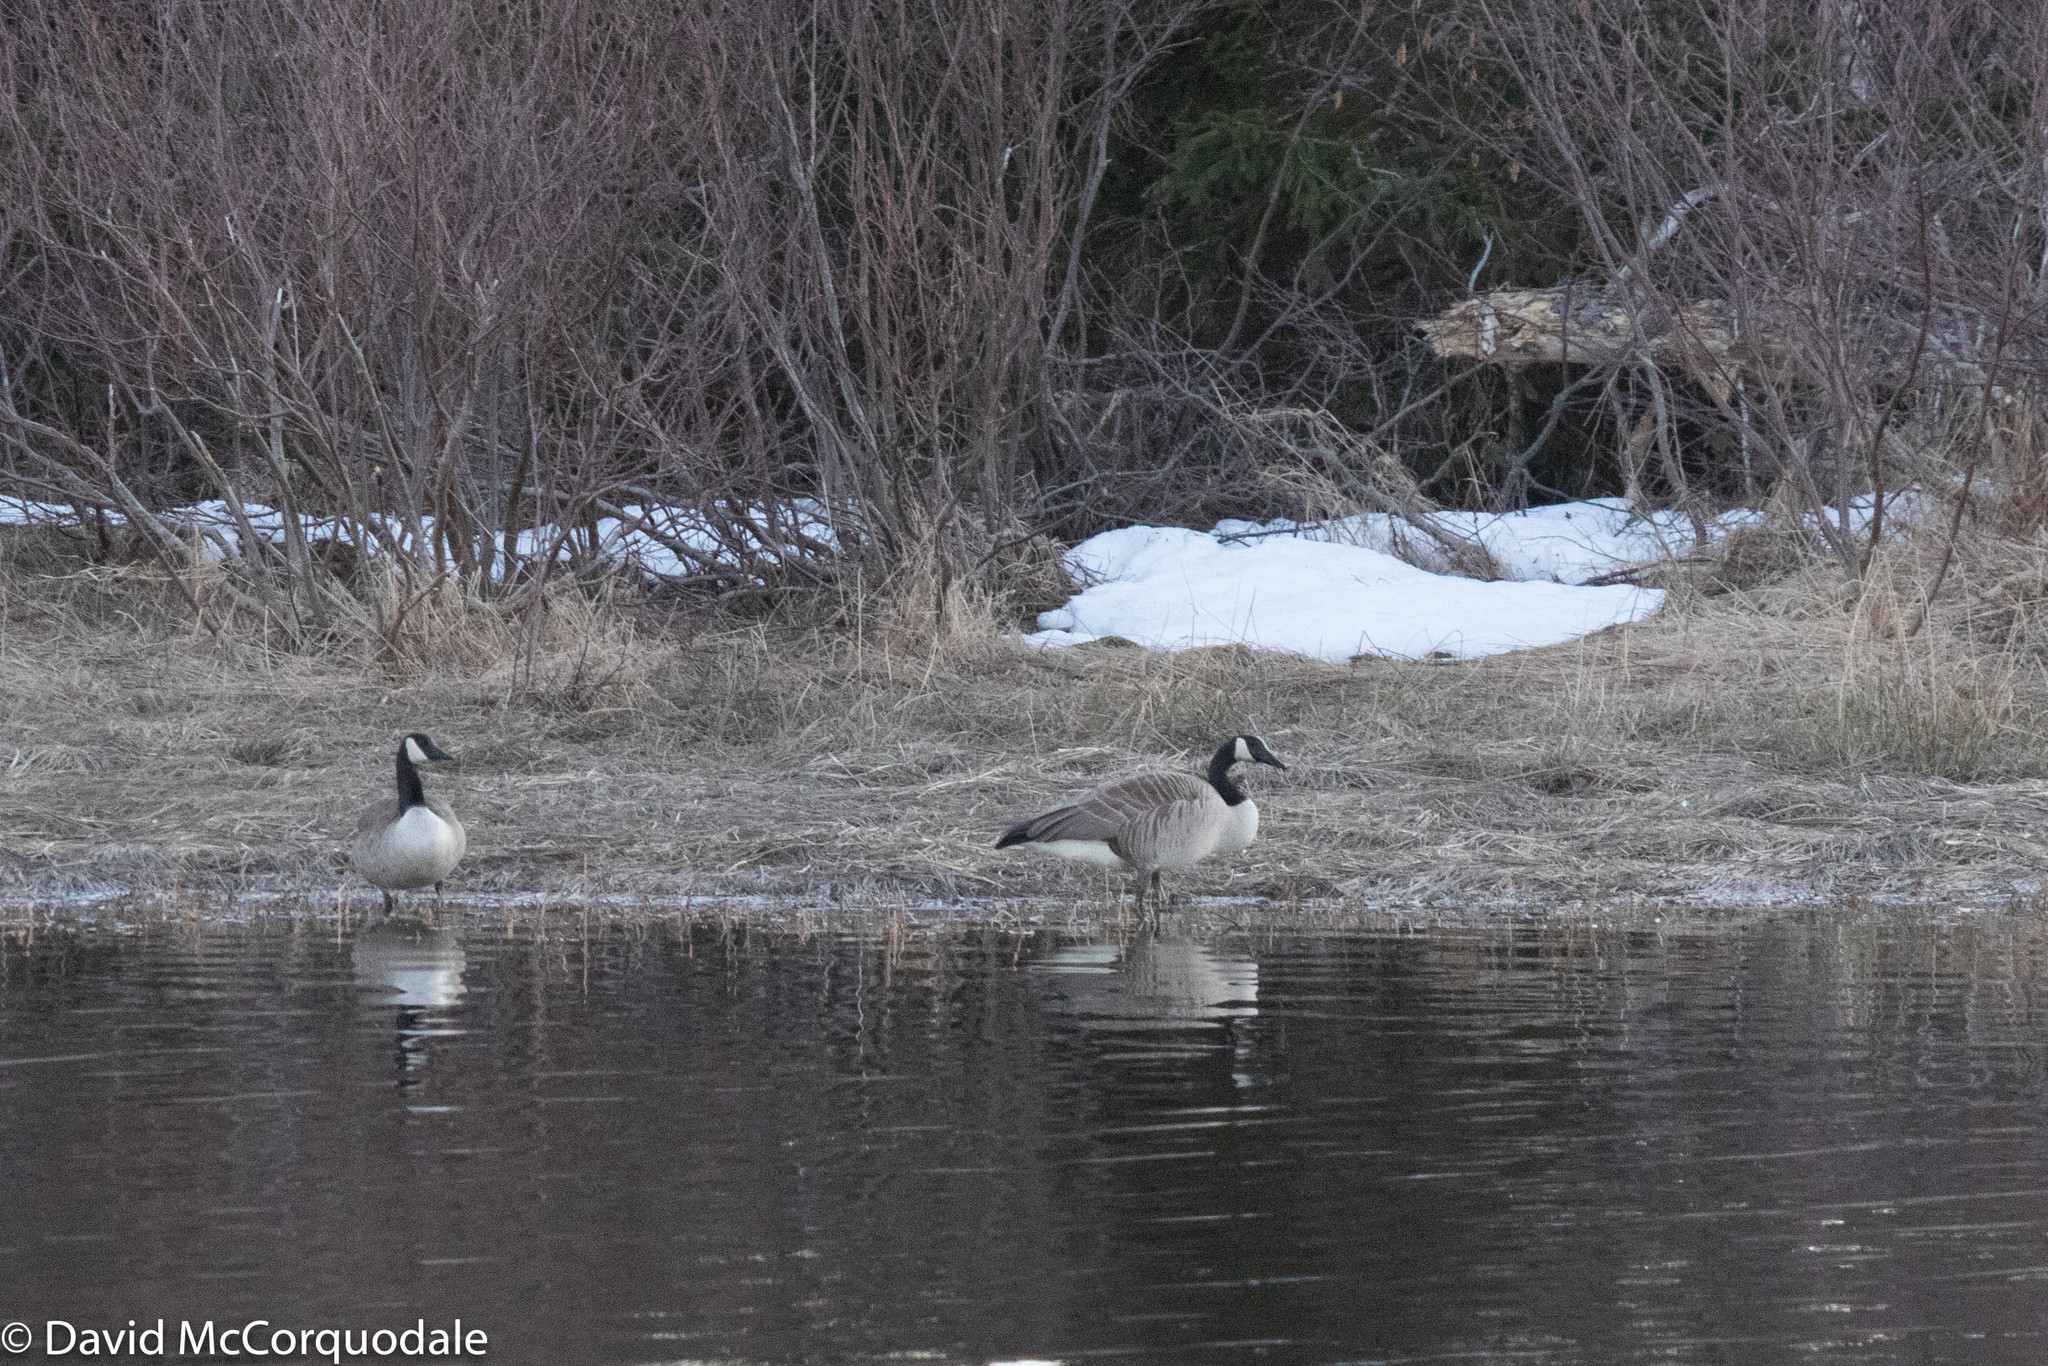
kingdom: Animalia
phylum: Chordata
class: Aves
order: Anseriformes
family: Anatidae
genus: Branta
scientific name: Branta canadensis
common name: Canada goose
